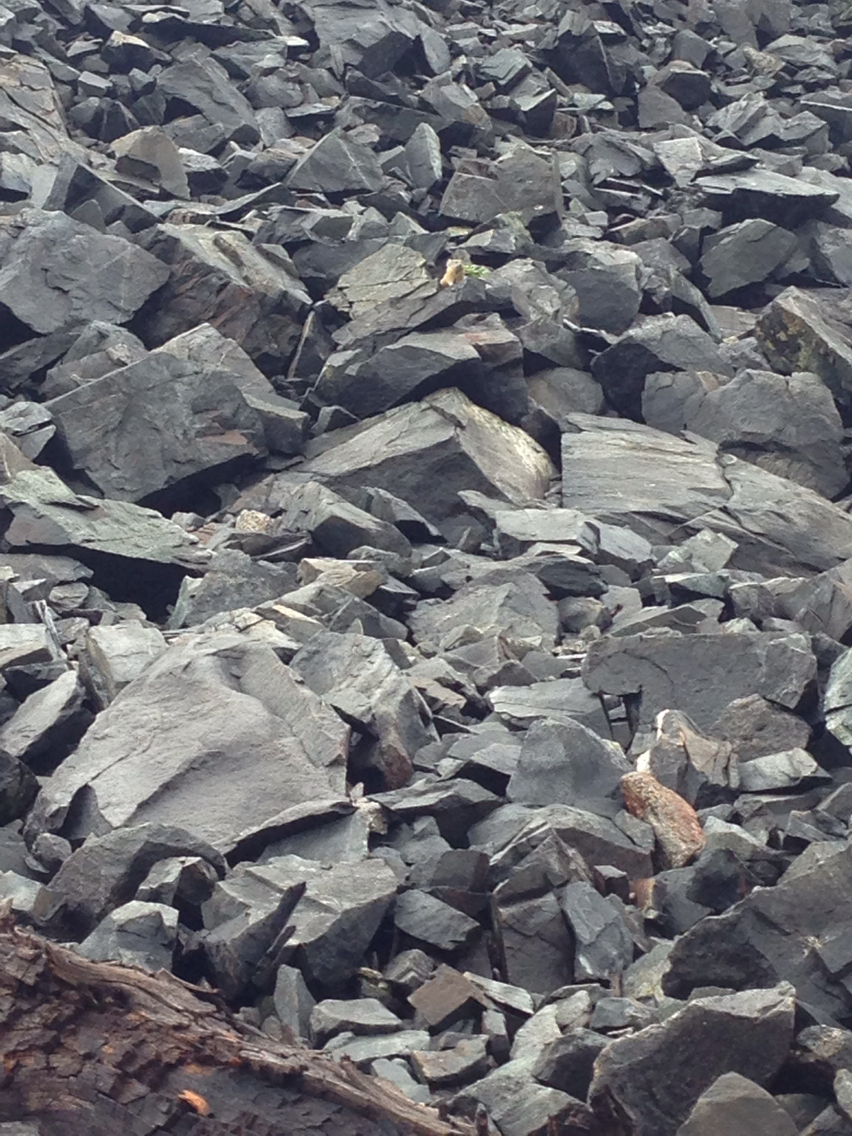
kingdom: Animalia
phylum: Chordata
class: Mammalia
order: Lagomorpha
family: Ochotonidae
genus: Ochotona
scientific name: Ochotona princeps
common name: American pika
